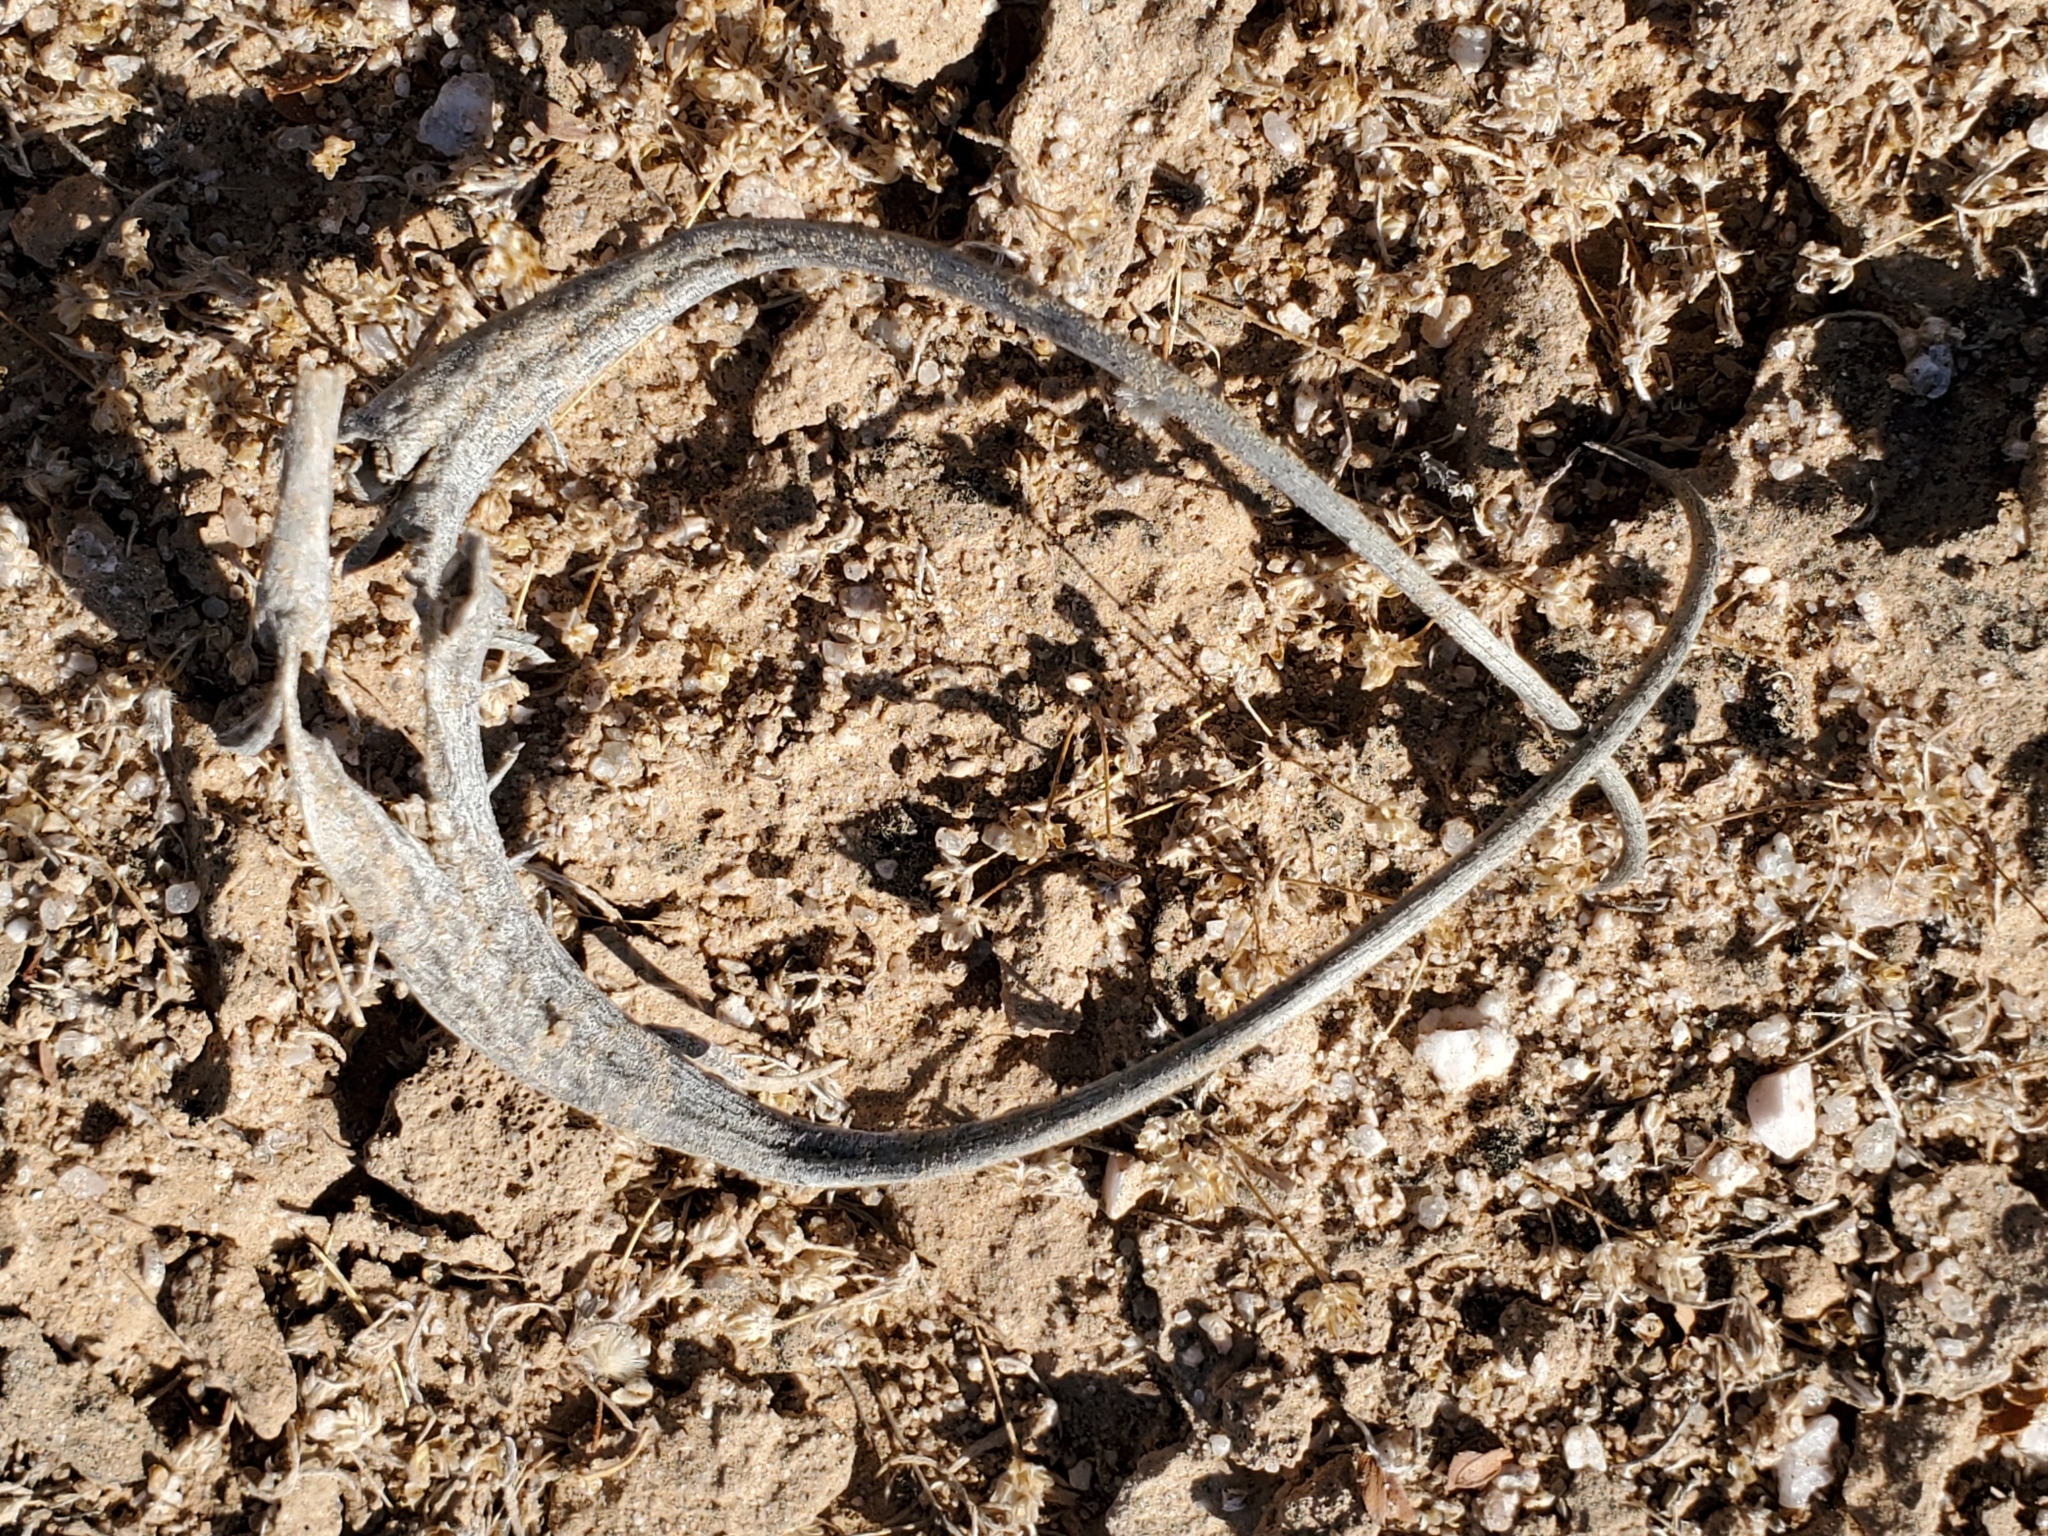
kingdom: Plantae
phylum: Tracheophyta
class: Magnoliopsida
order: Lamiales
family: Martyniaceae
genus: Proboscidea
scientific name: Proboscidea althaeifolia
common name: Desert unicorn-plant
